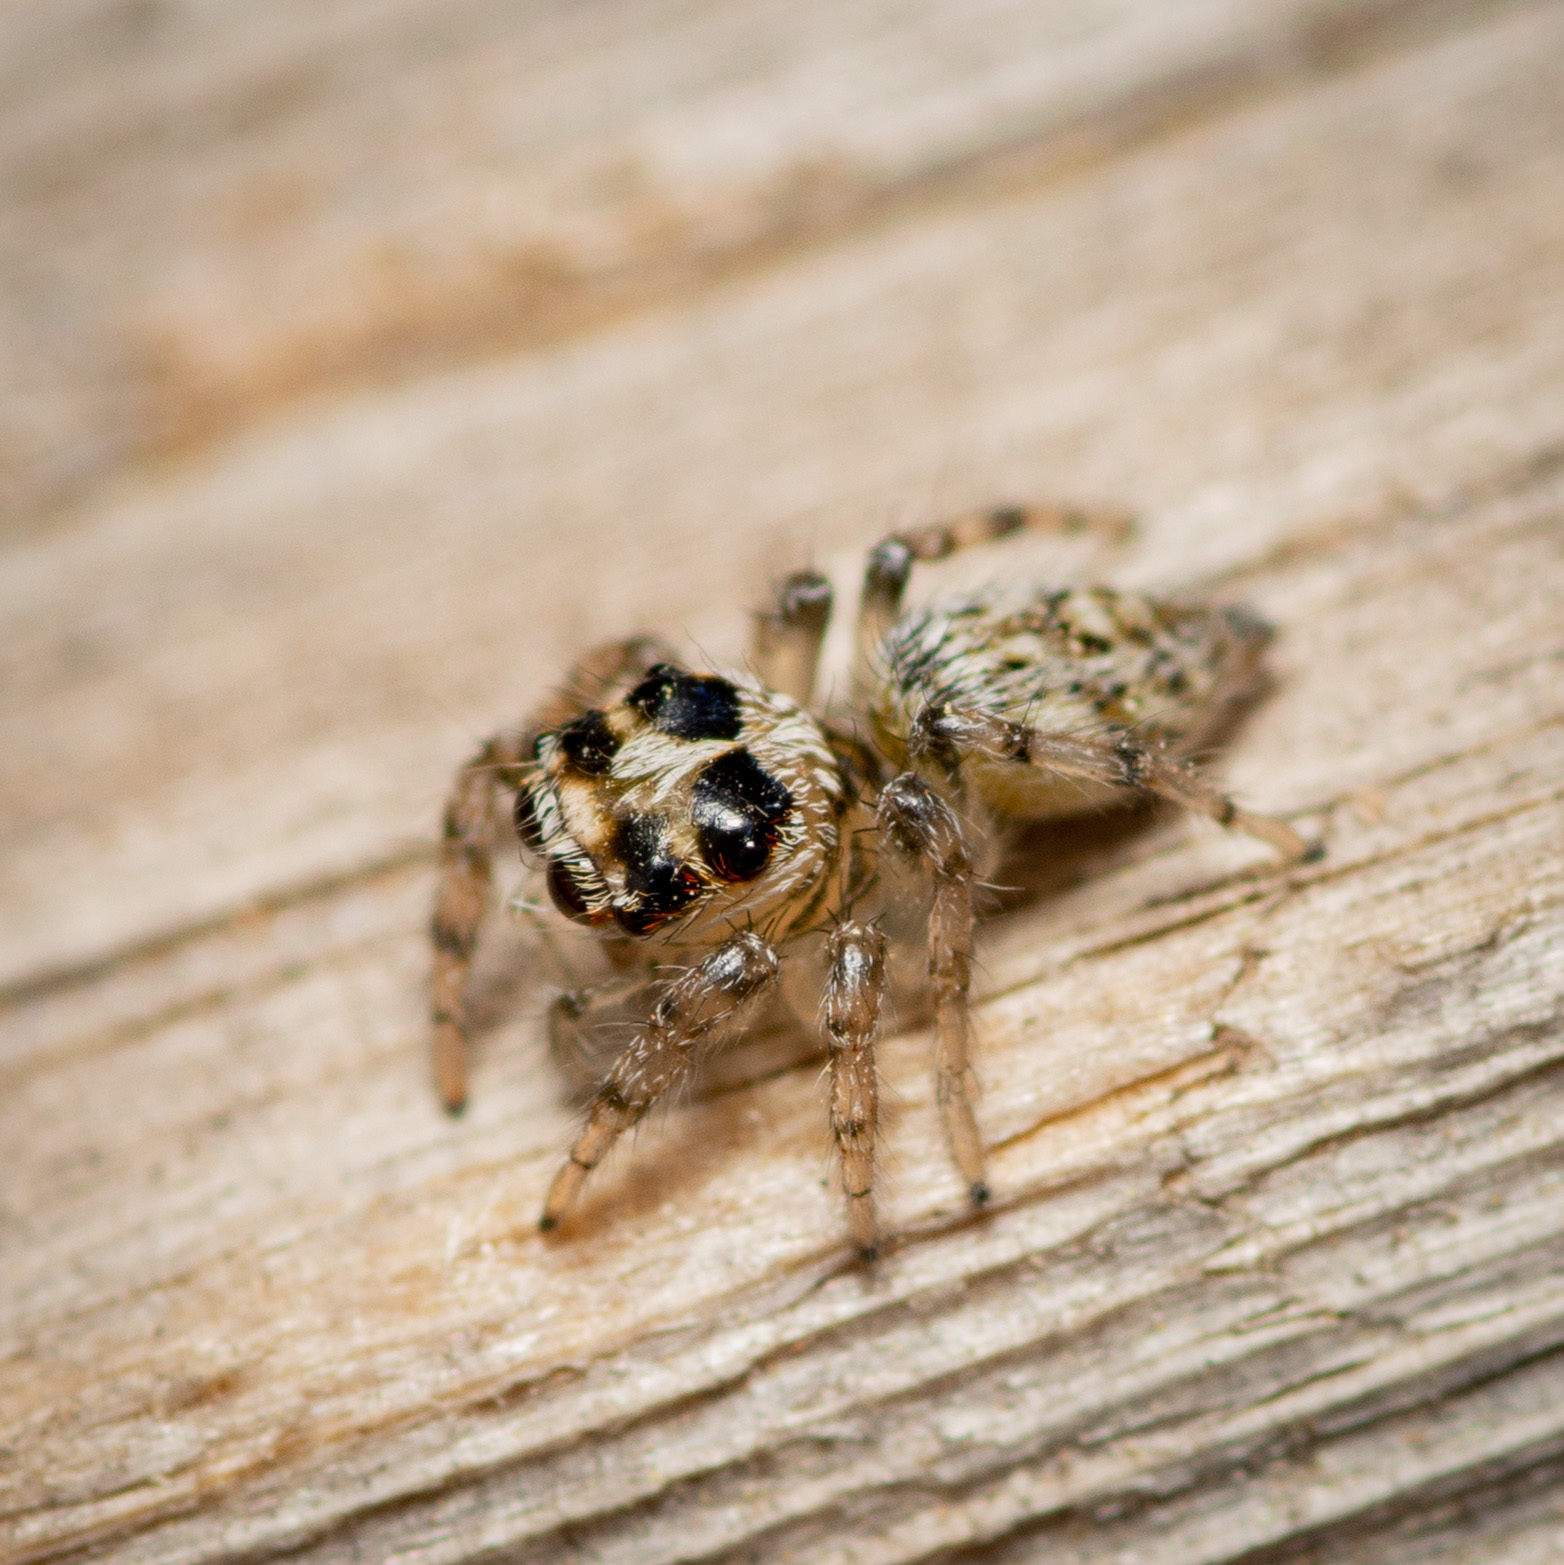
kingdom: Animalia
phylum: Arthropoda
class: Arachnida
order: Araneae
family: Salticidae
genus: Colonus
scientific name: Colonus hesperus
